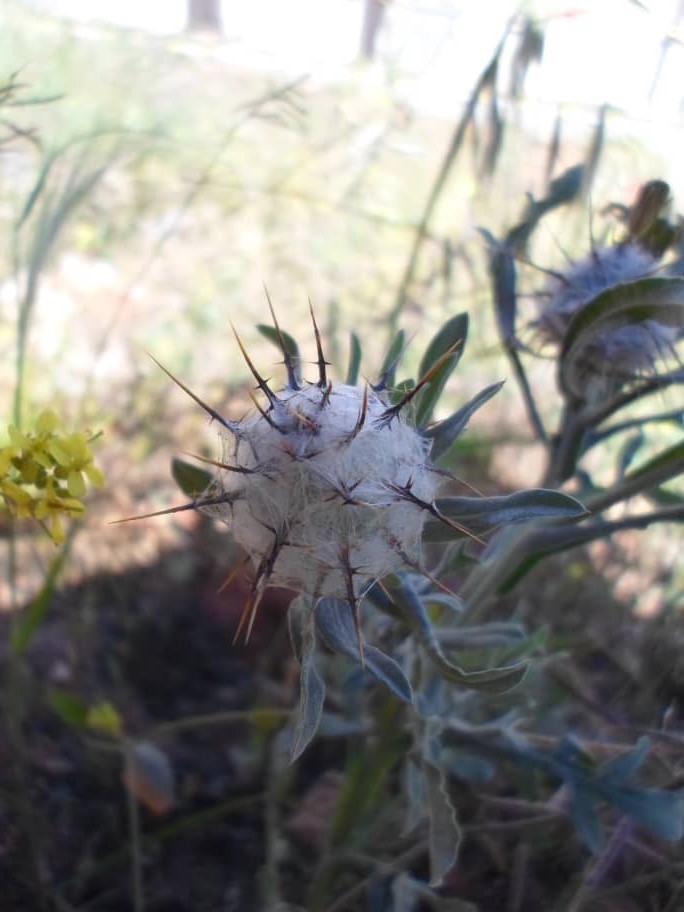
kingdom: Plantae
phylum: Tracheophyta
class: Magnoliopsida
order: Asterales
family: Asteraceae
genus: Centaurea
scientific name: Centaurea eriophora
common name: Wild sandheath
